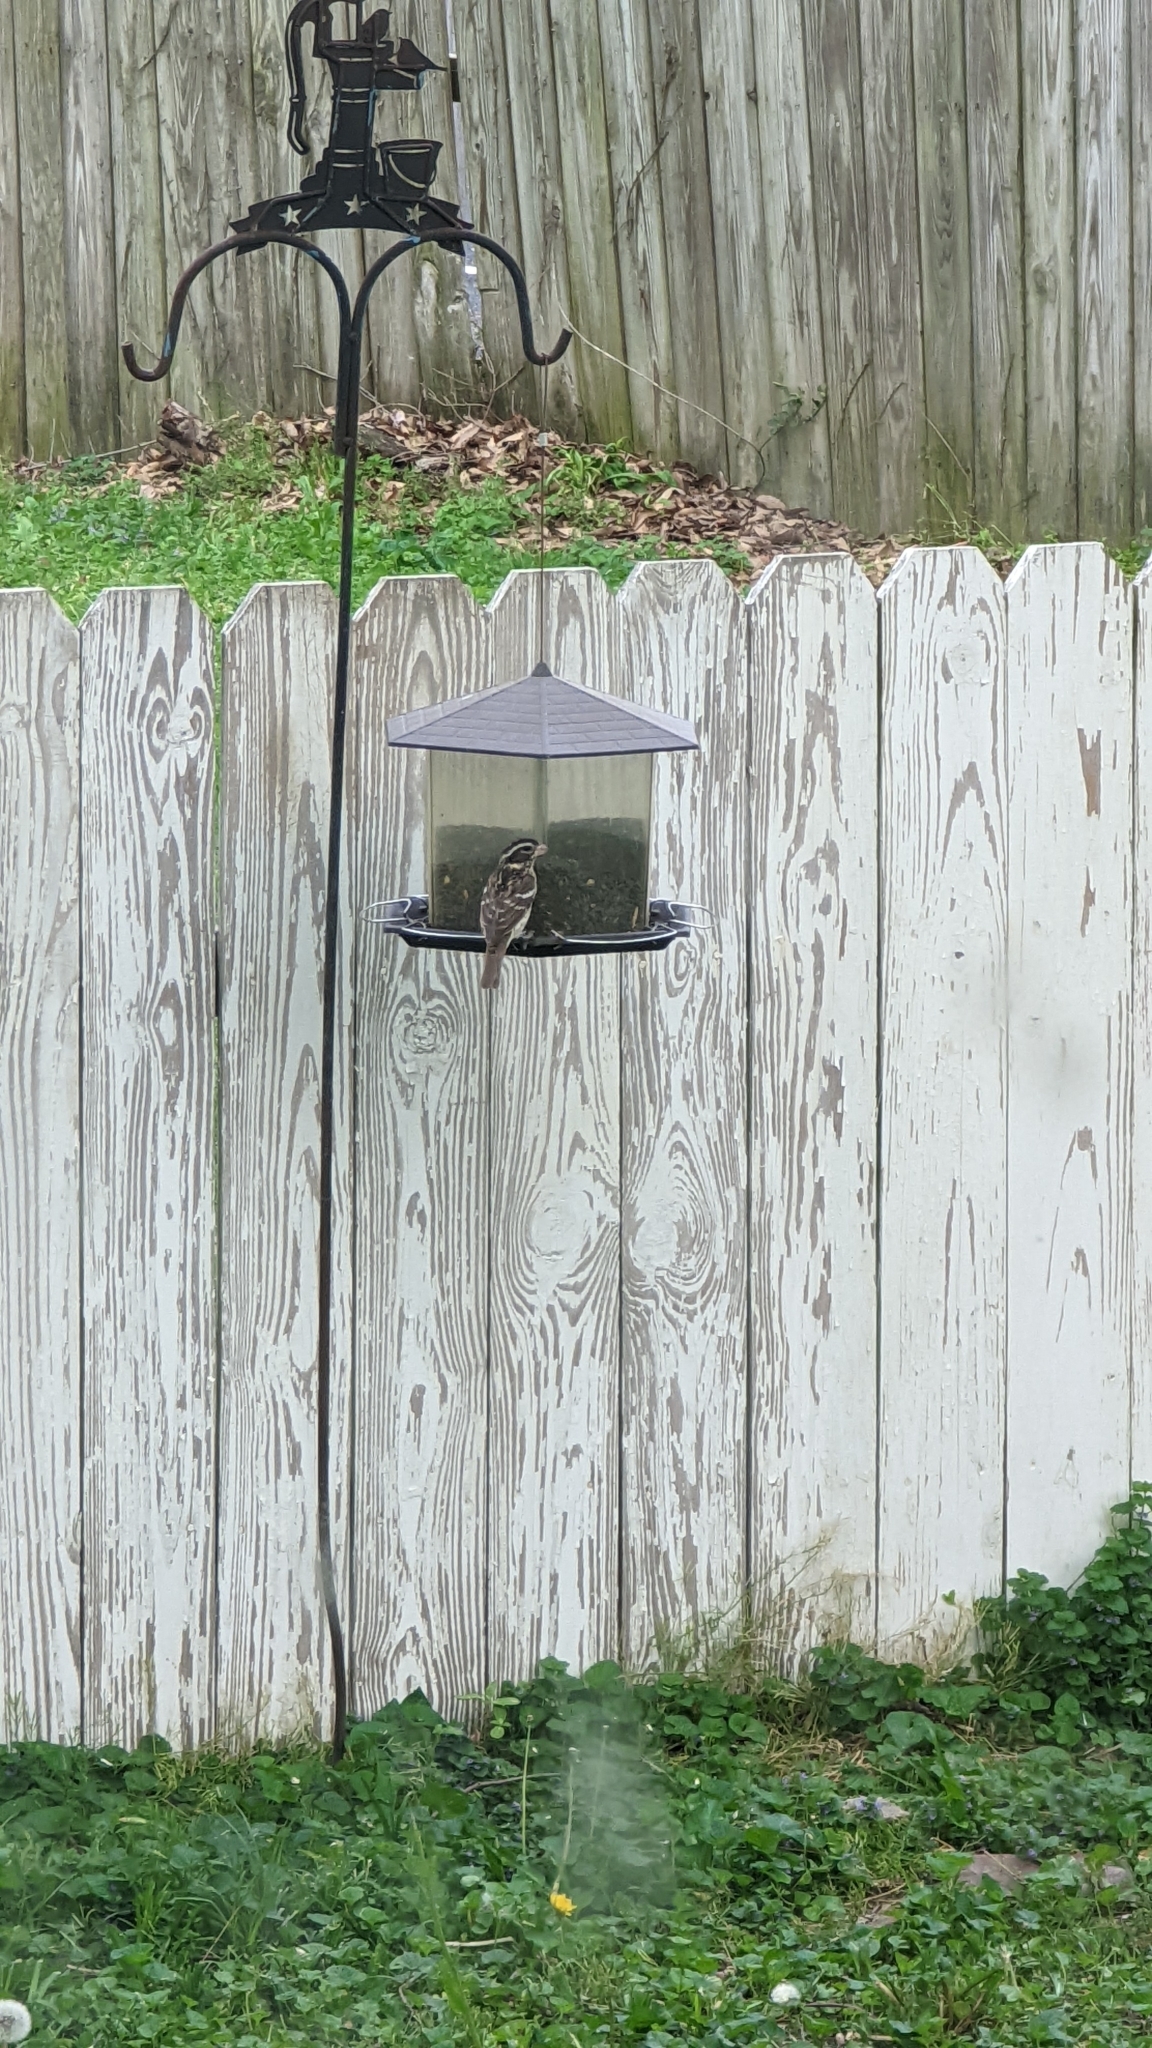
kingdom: Animalia
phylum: Chordata
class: Aves
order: Passeriformes
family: Cardinalidae
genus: Pheucticus
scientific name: Pheucticus ludovicianus
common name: Rose-breasted grosbeak
